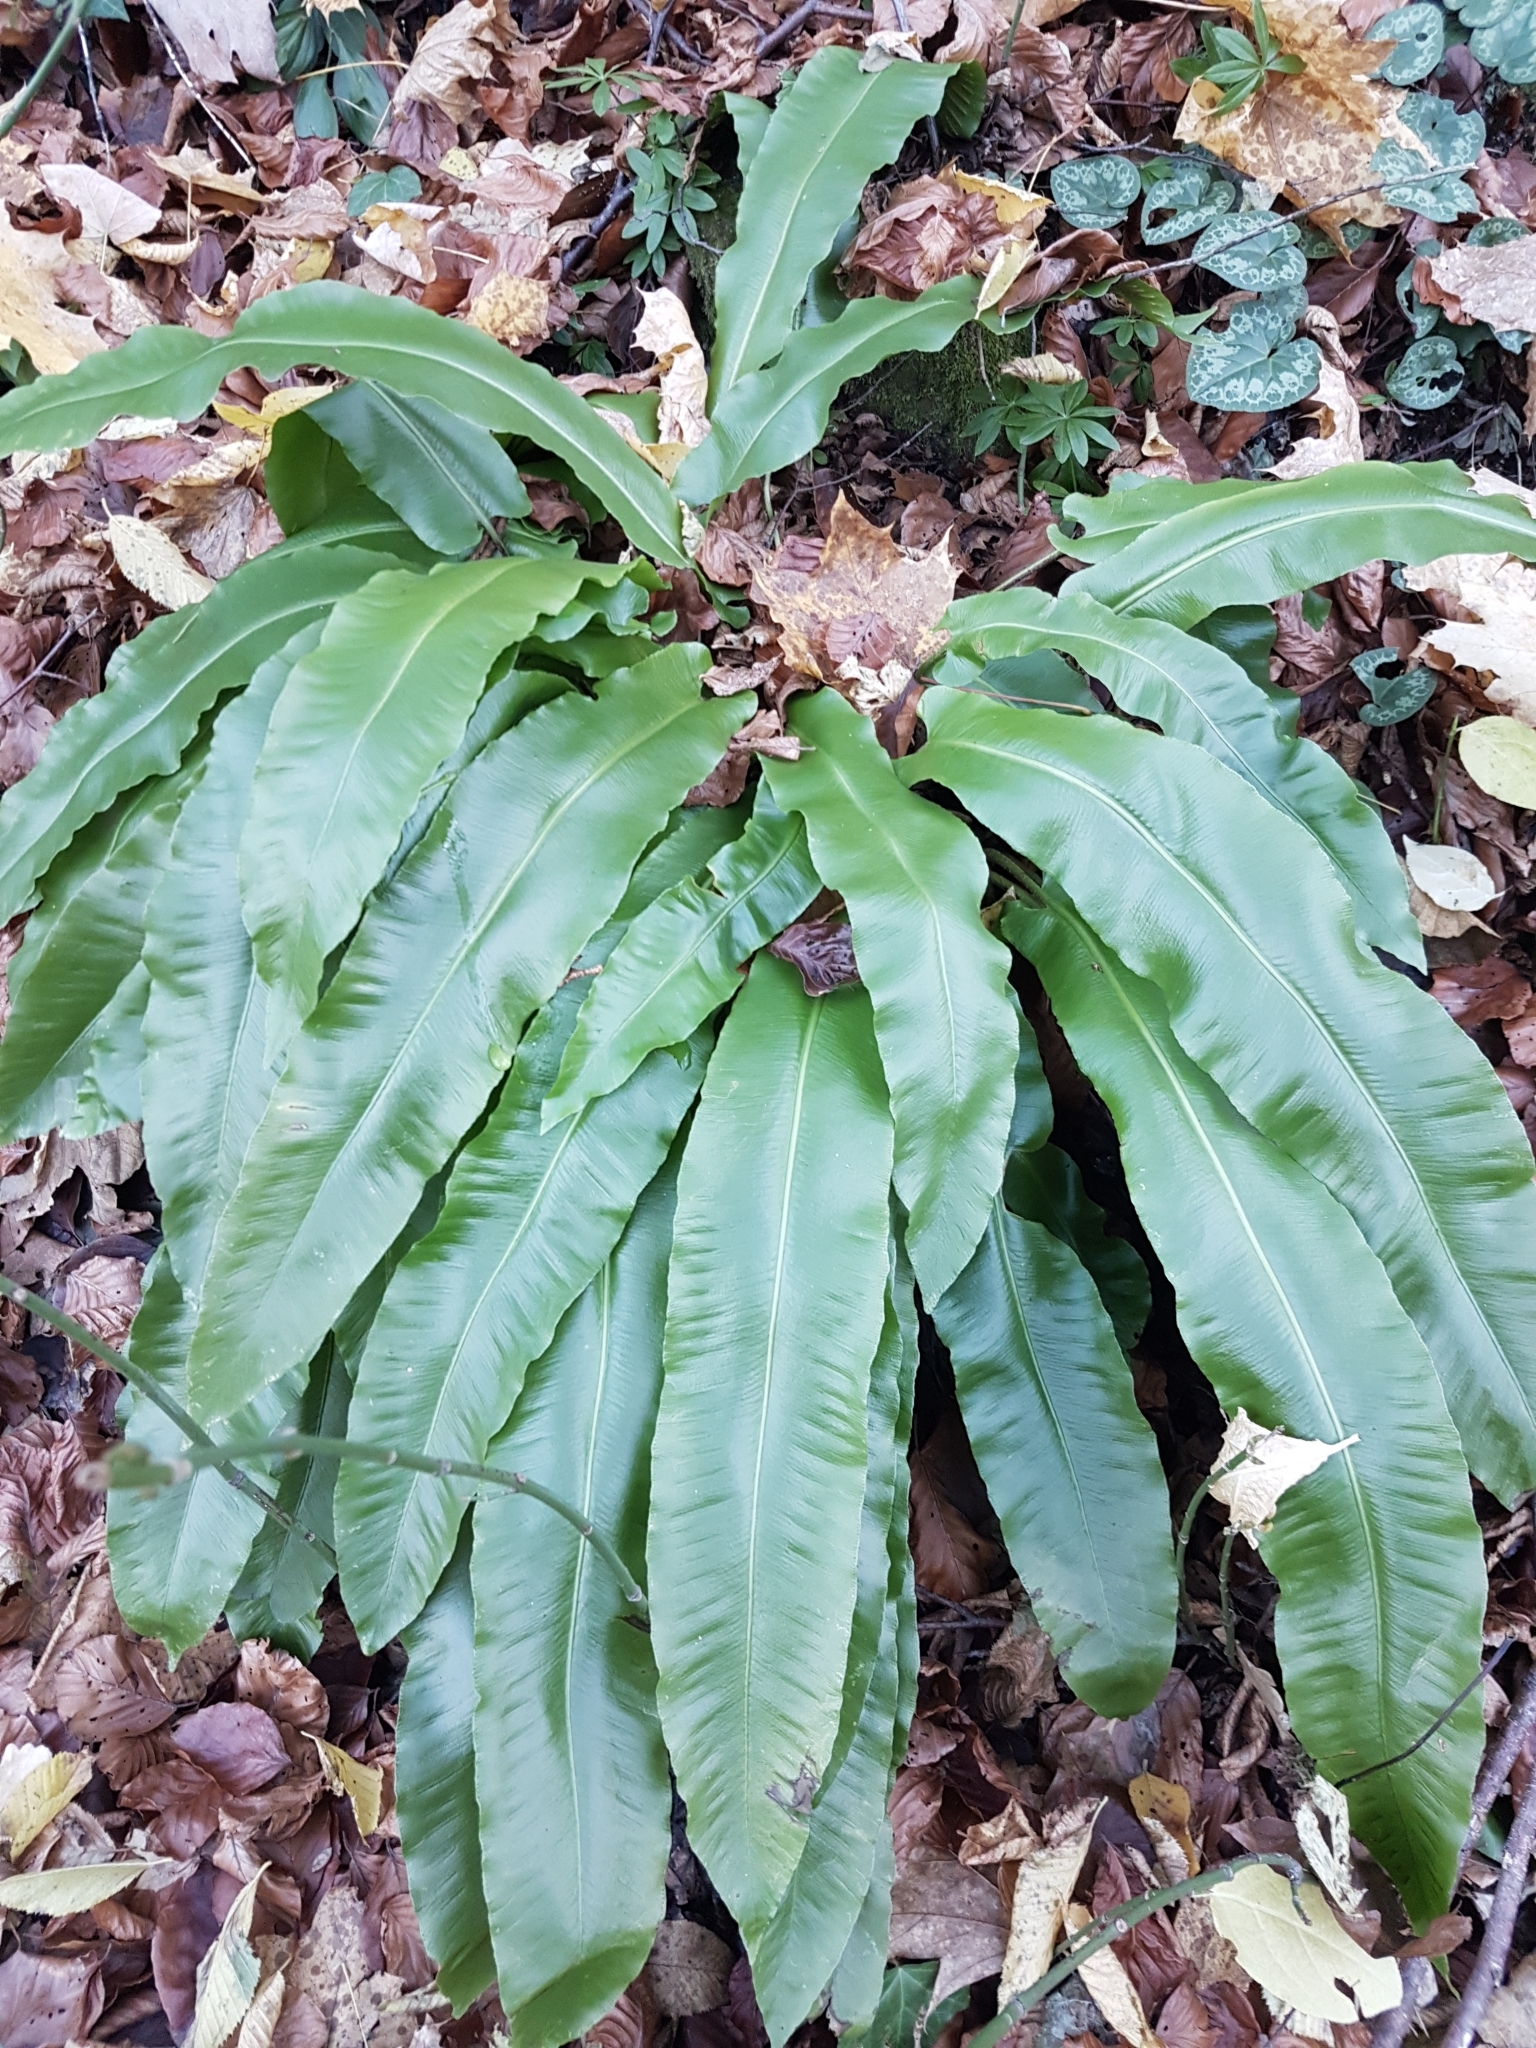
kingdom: Plantae
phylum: Tracheophyta
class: Polypodiopsida
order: Polypodiales
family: Aspleniaceae
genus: Asplenium
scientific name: Asplenium scolopendrium
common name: Hart's-tongue fern
